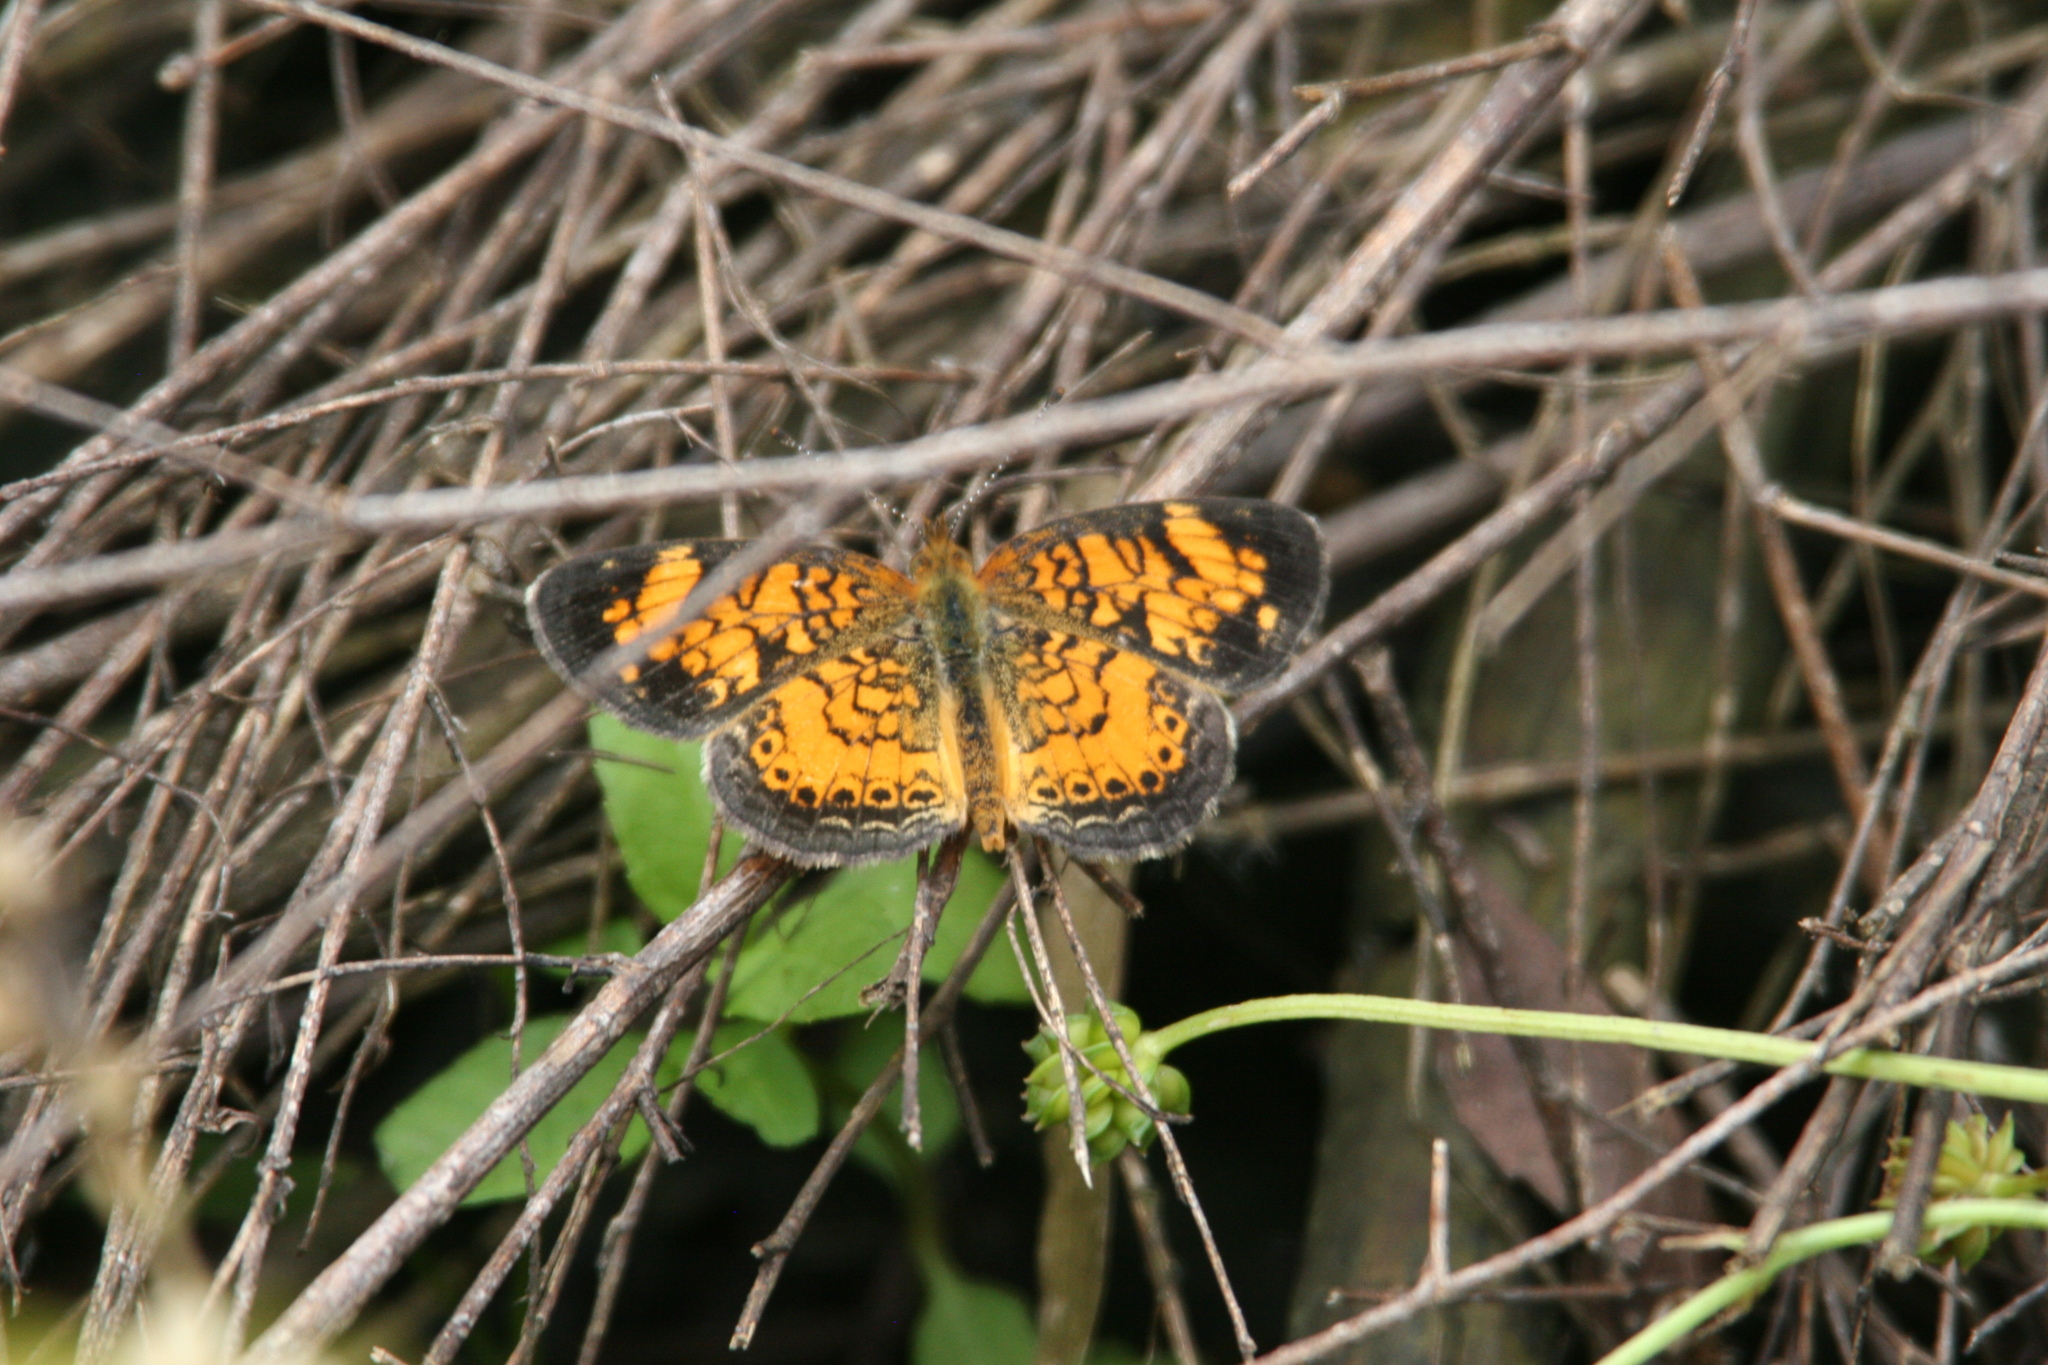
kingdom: Animalia
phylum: Arthropoda
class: Insecta
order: Lepidoptera
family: Nymphalidae
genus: Phyciodes
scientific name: Phyciodes tharos
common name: Pearl crescent
